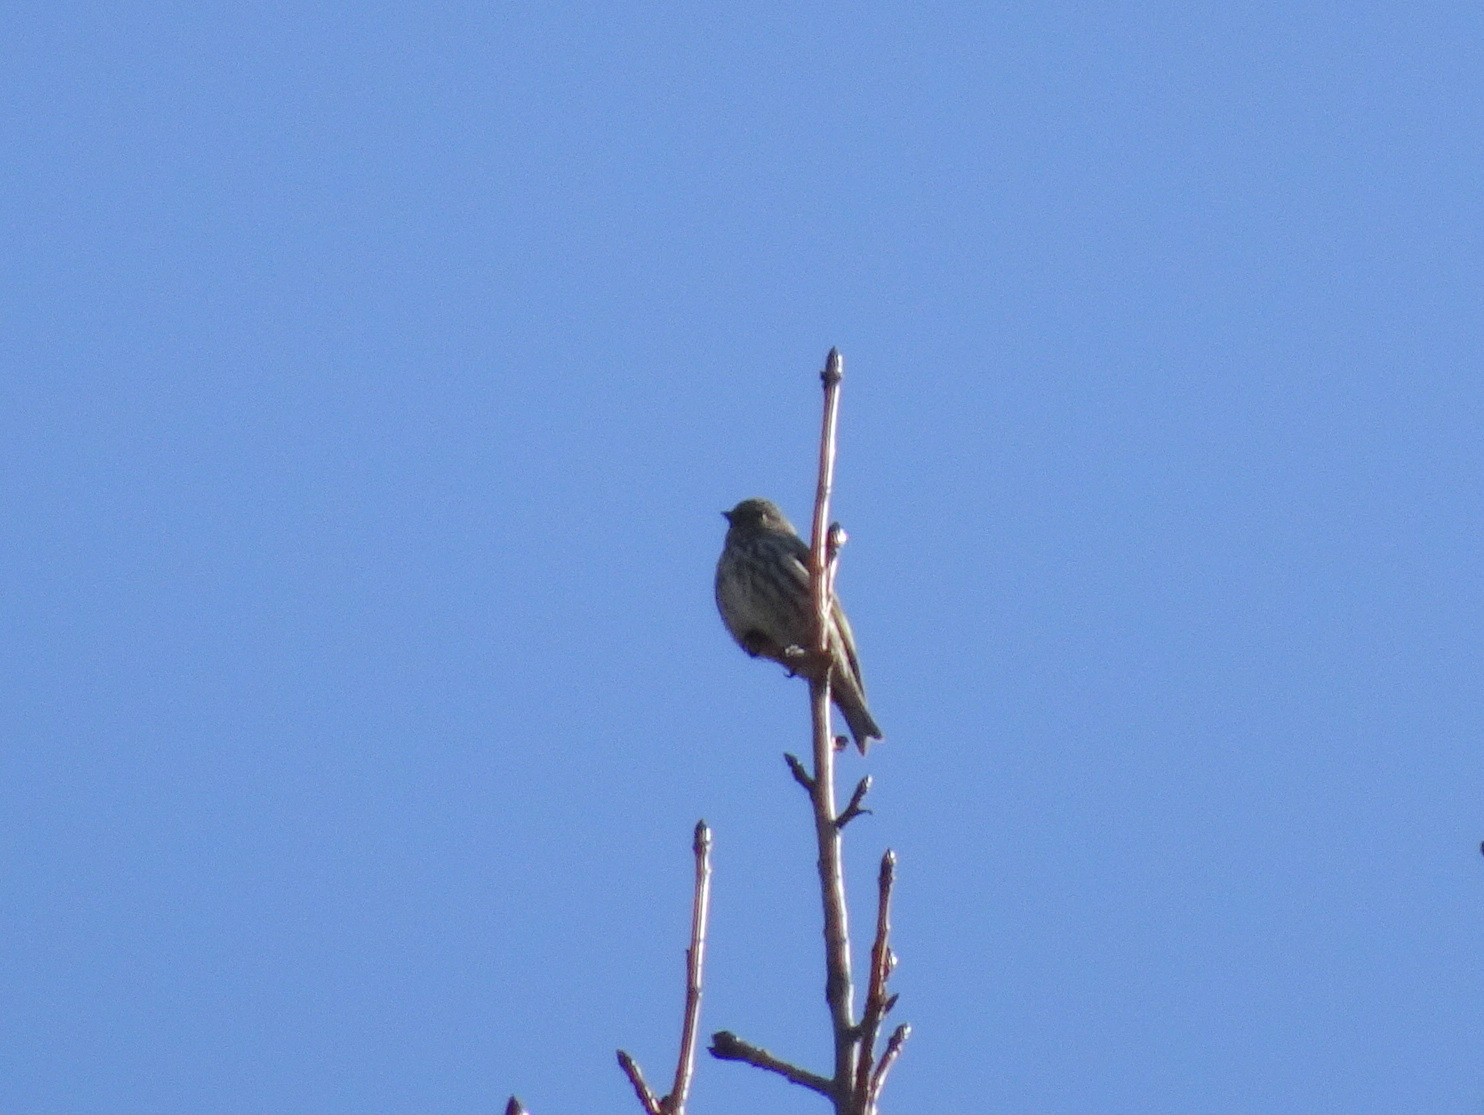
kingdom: Animalia
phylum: Chordata
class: Aves
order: Passeriformes
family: Fringillidae
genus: Spinus
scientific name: Spinus pinus
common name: Pine siskin
